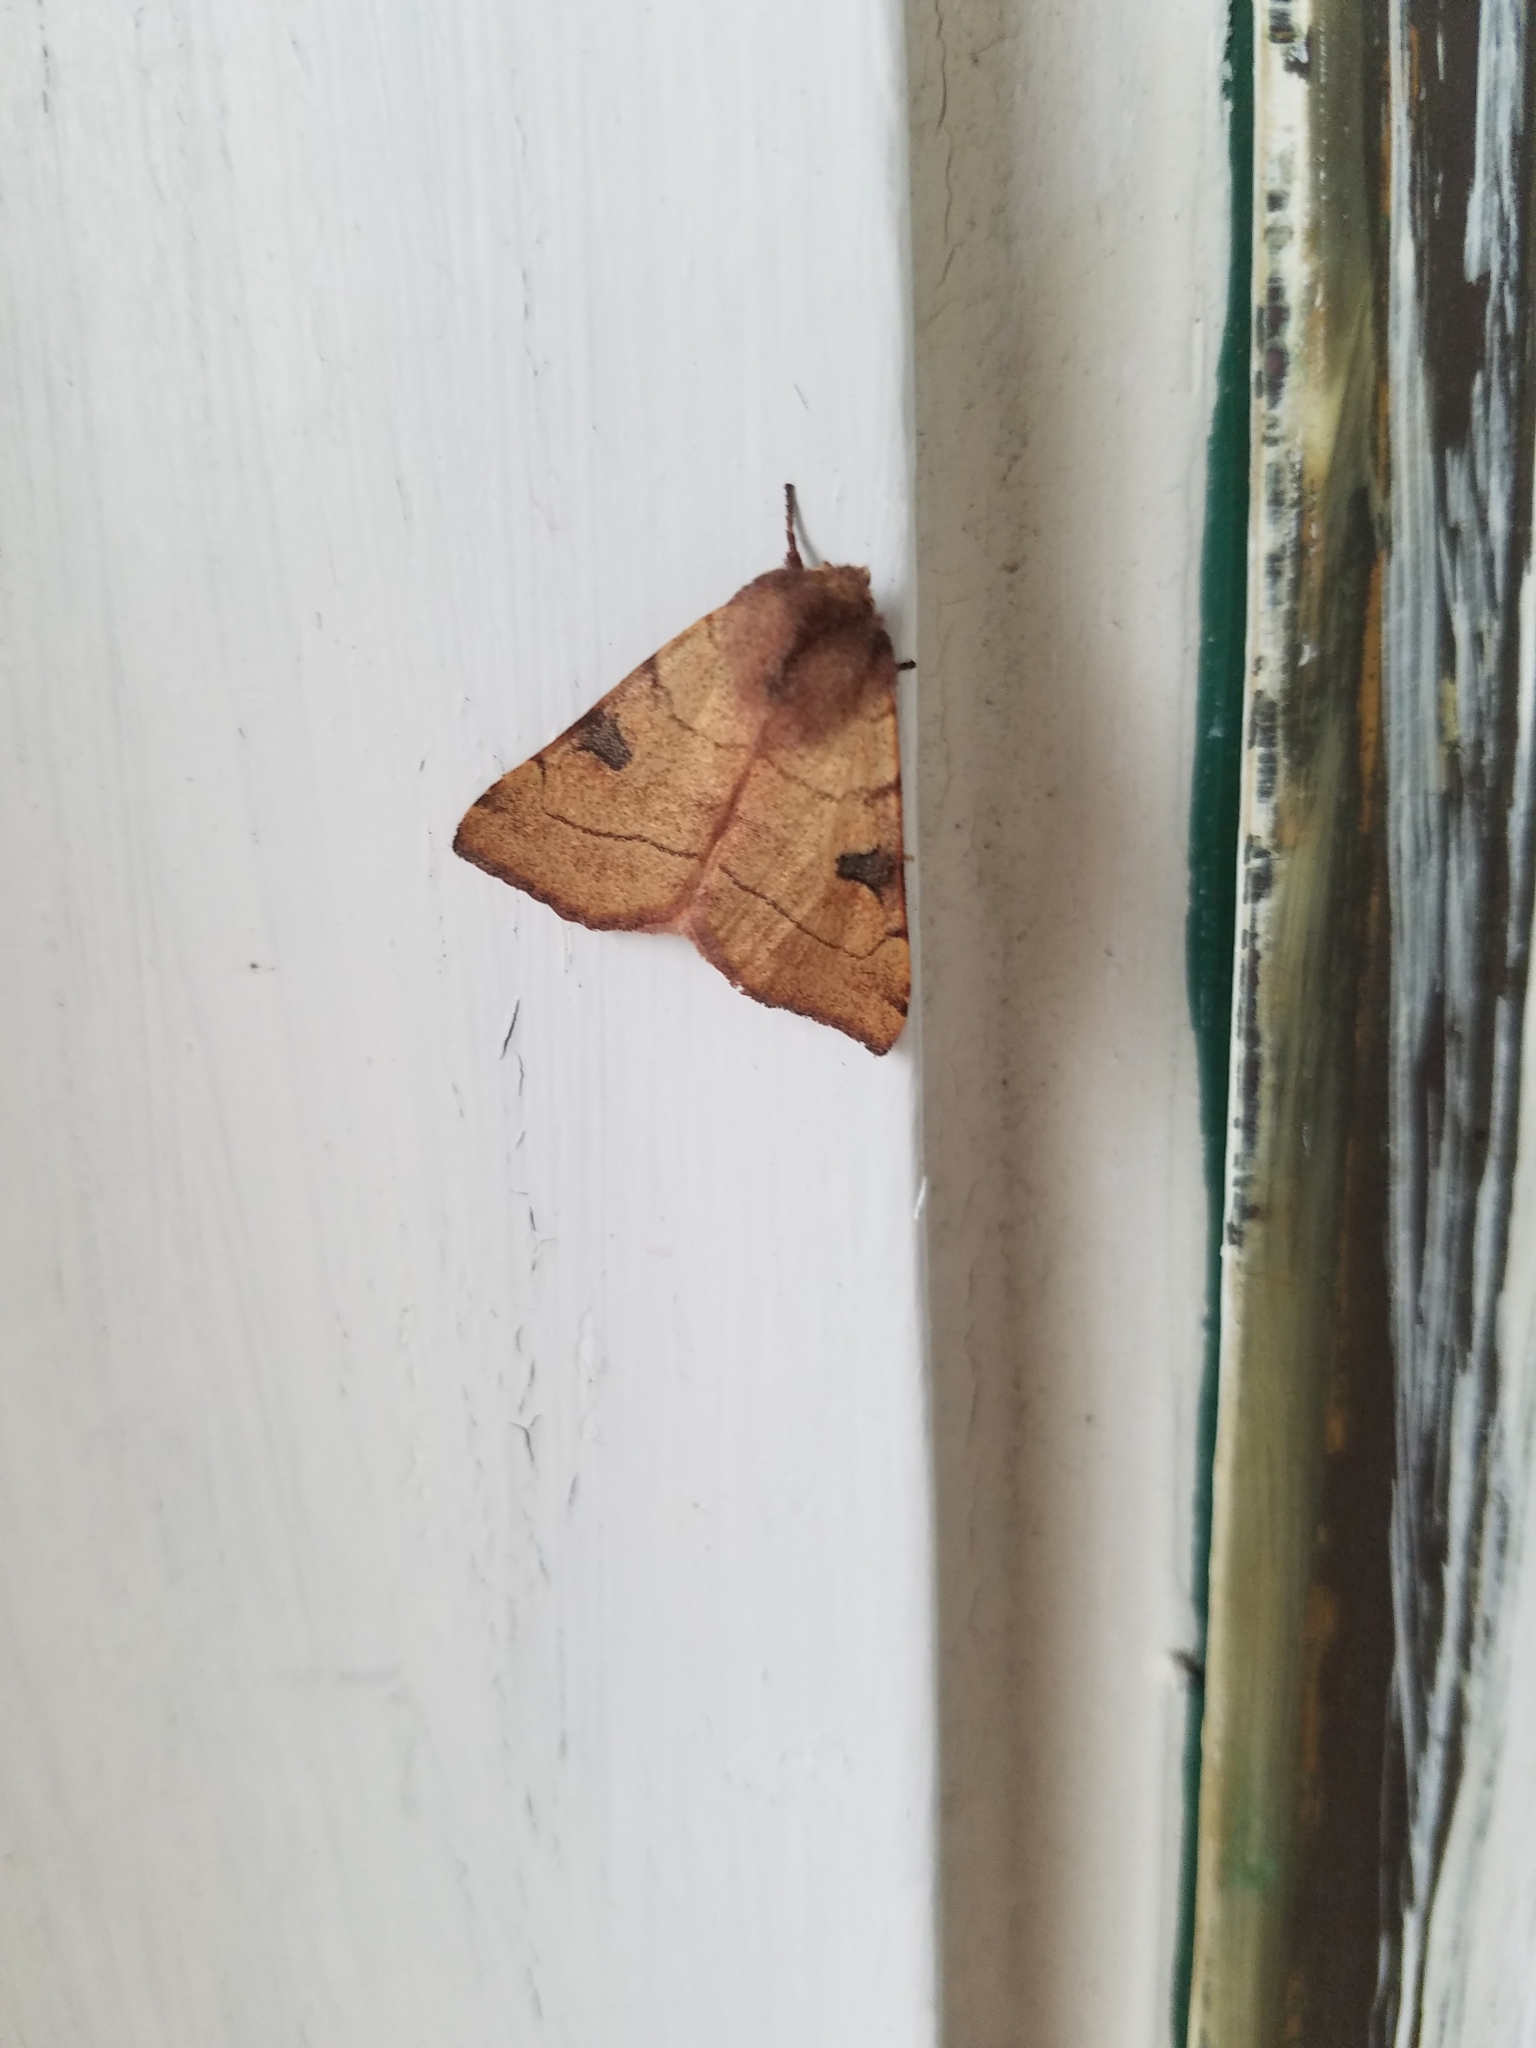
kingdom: Animalia
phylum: Arthropoda
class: Insecta
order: Lepidoptera
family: Noctuidae
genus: Choephora
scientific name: Choephora fungorum
